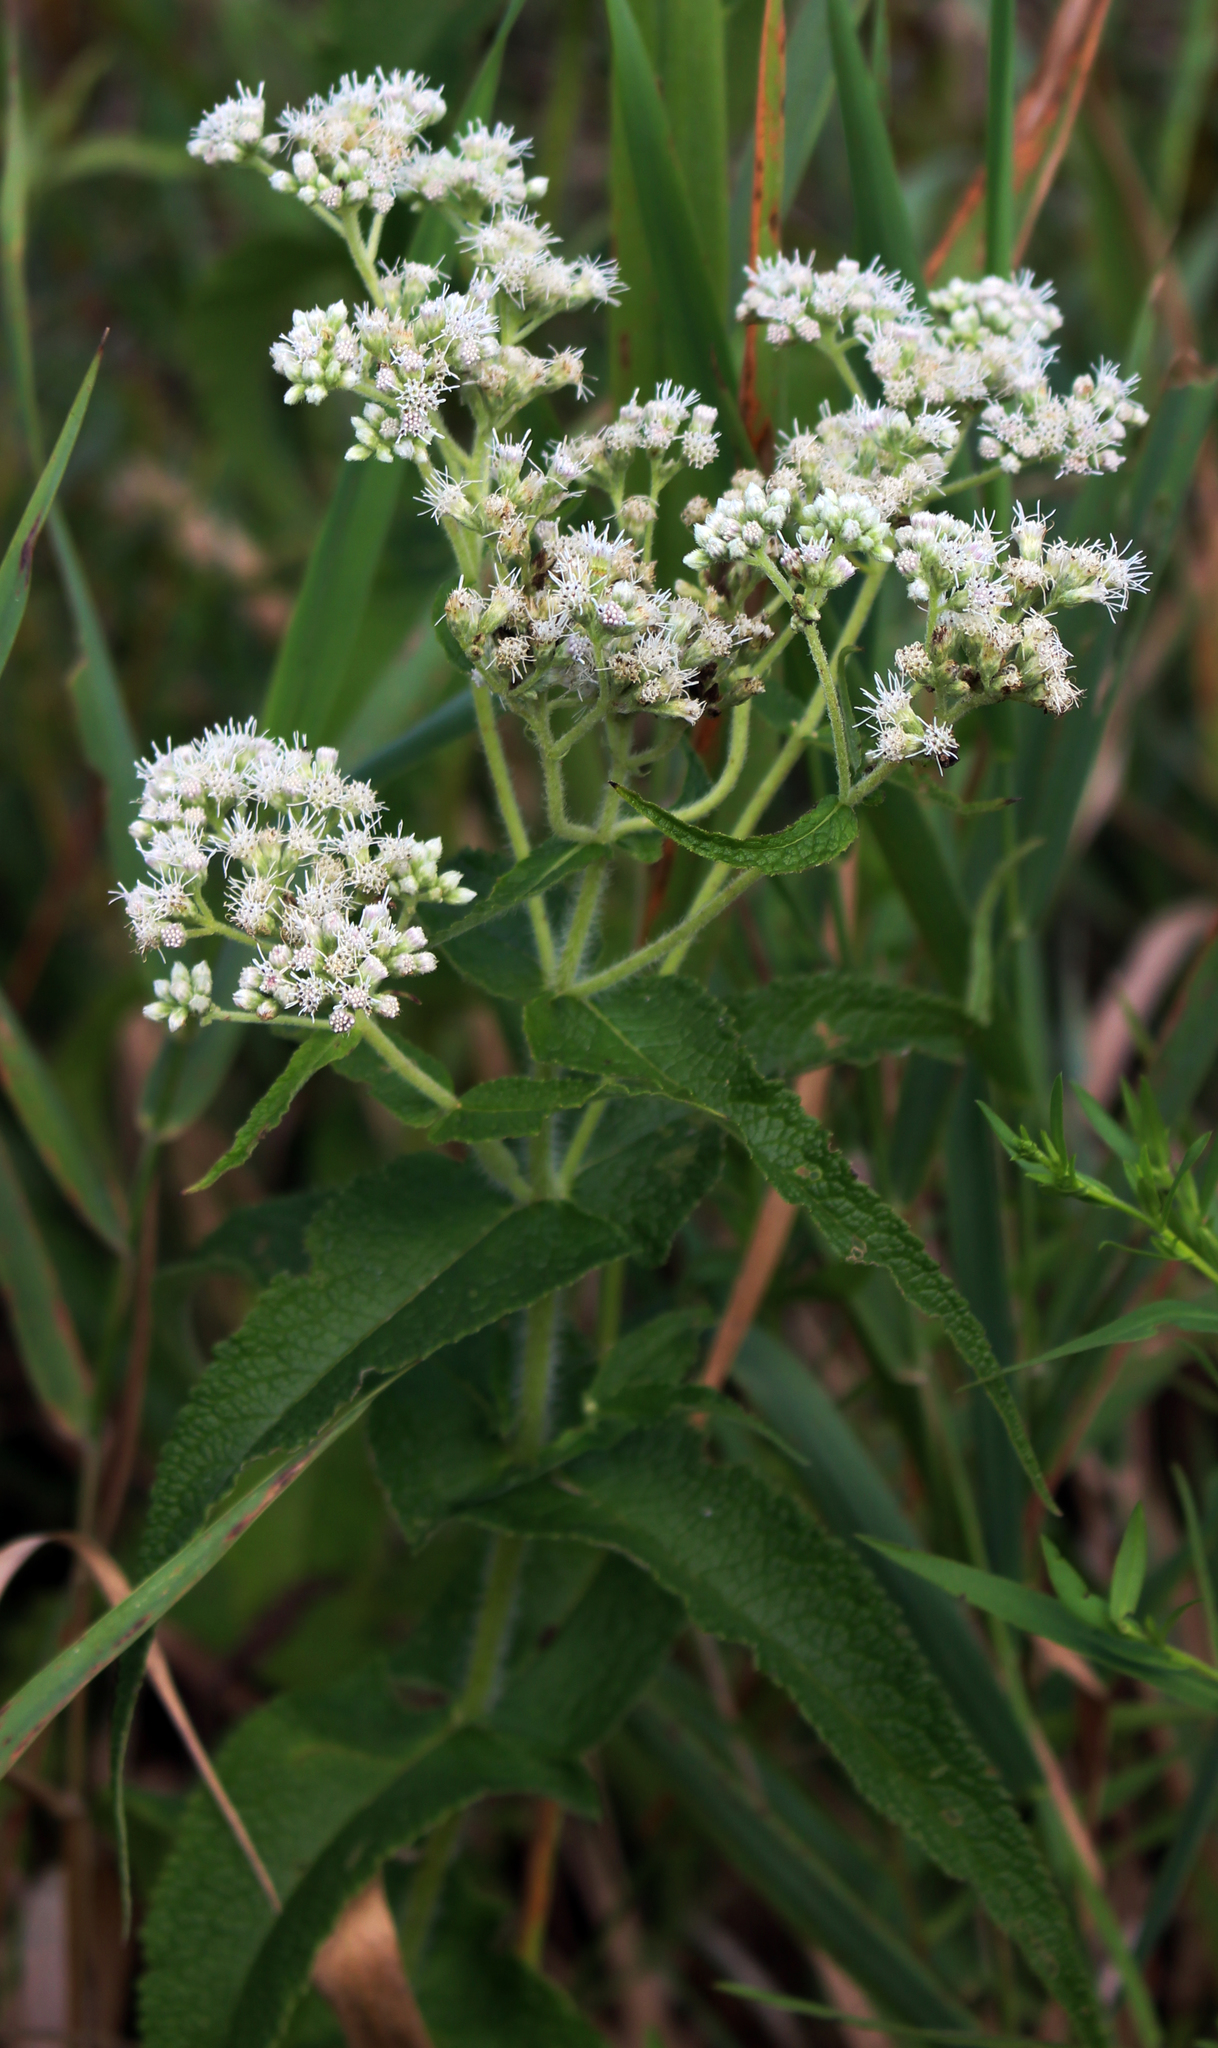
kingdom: Plantae
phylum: Tracheophyta
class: Magnoliopsida
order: Asterales
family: Asteraceae
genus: Eupatorium
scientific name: Eupatorium perfoliatum
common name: Boneset
